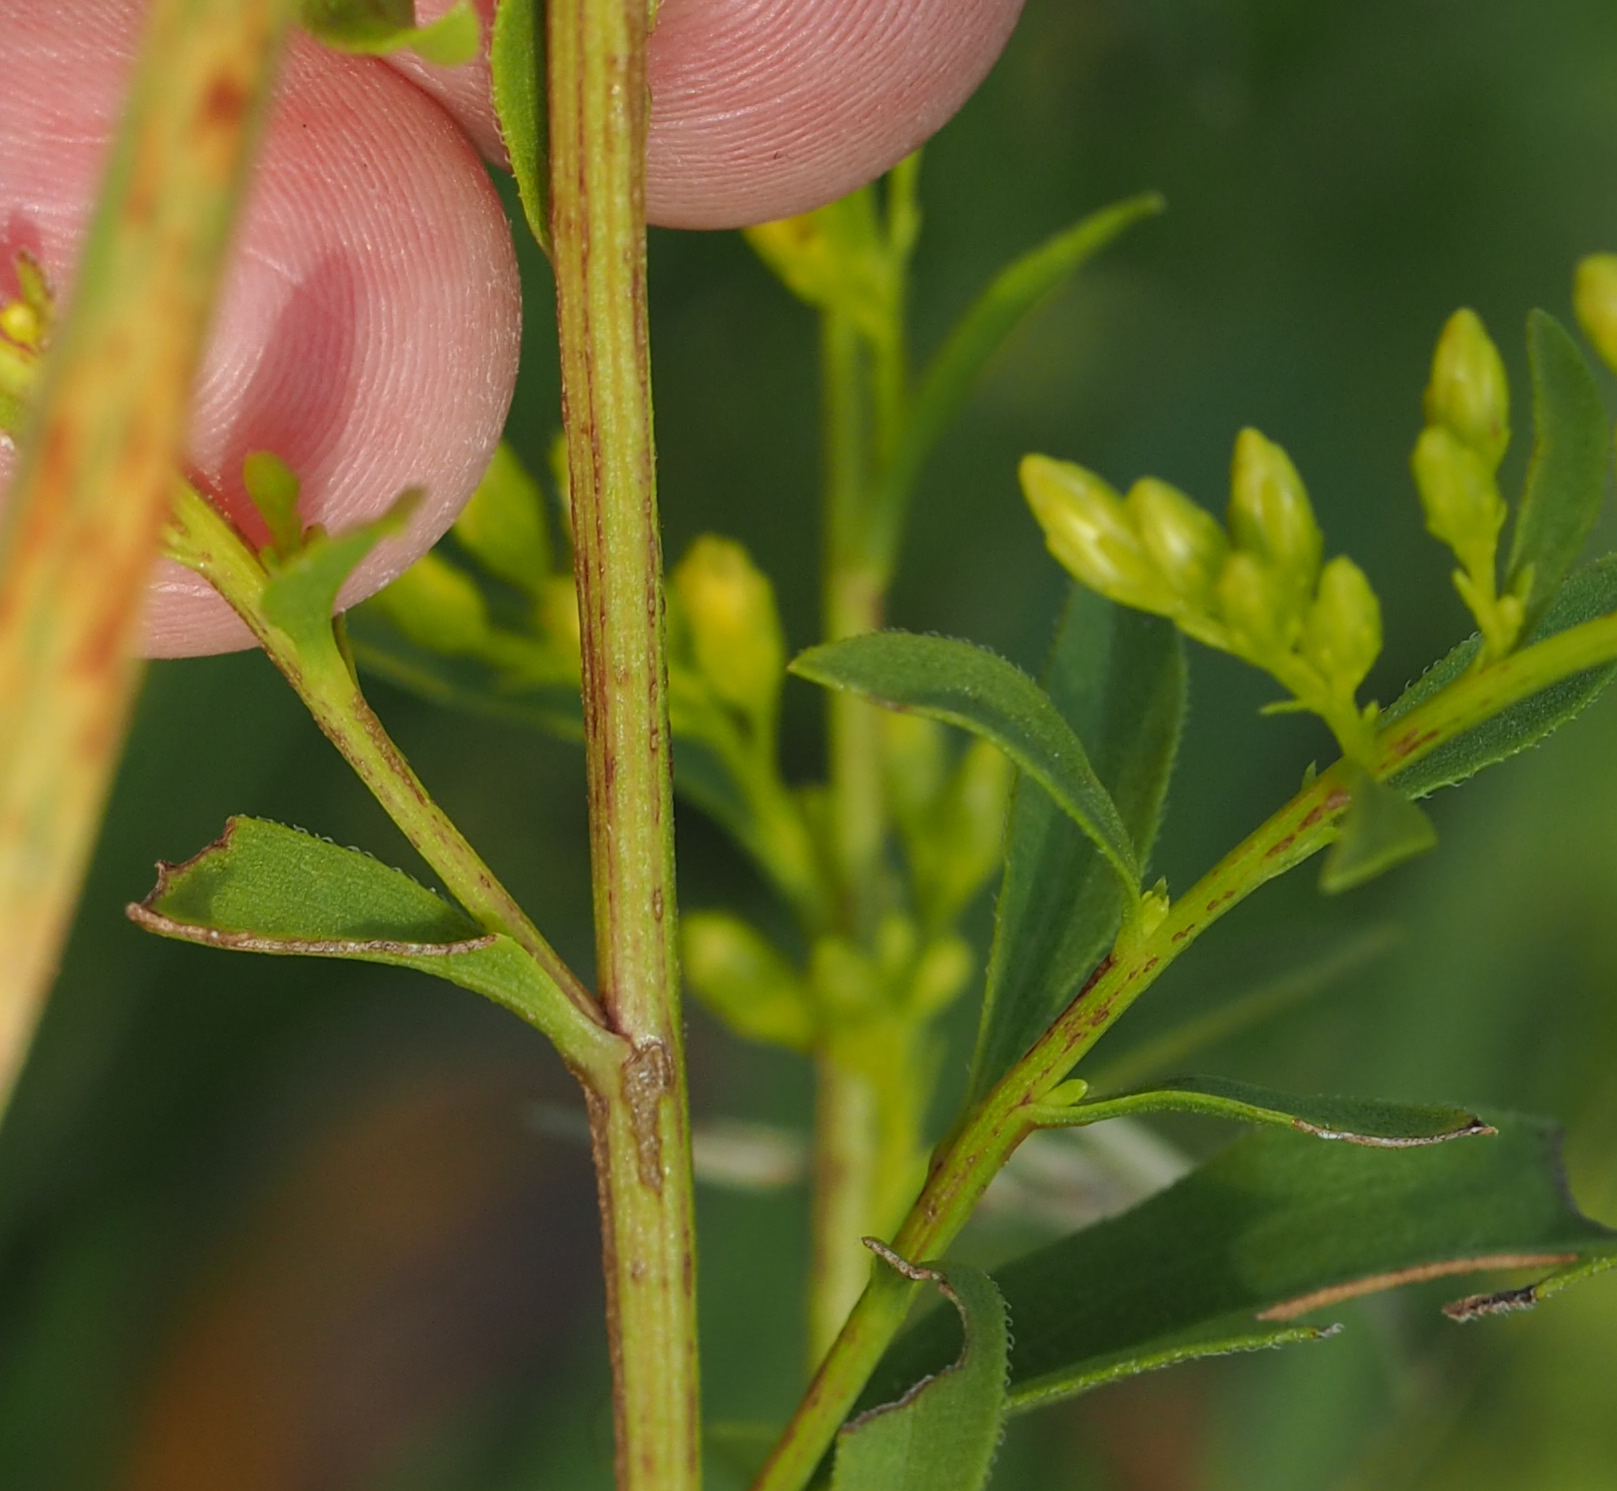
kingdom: Plantae
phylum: Tracheophyta
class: Magnoliopsida
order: Asterales
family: Asteraceae
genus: Solidago
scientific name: Solidago juncea
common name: Early goldenrod
